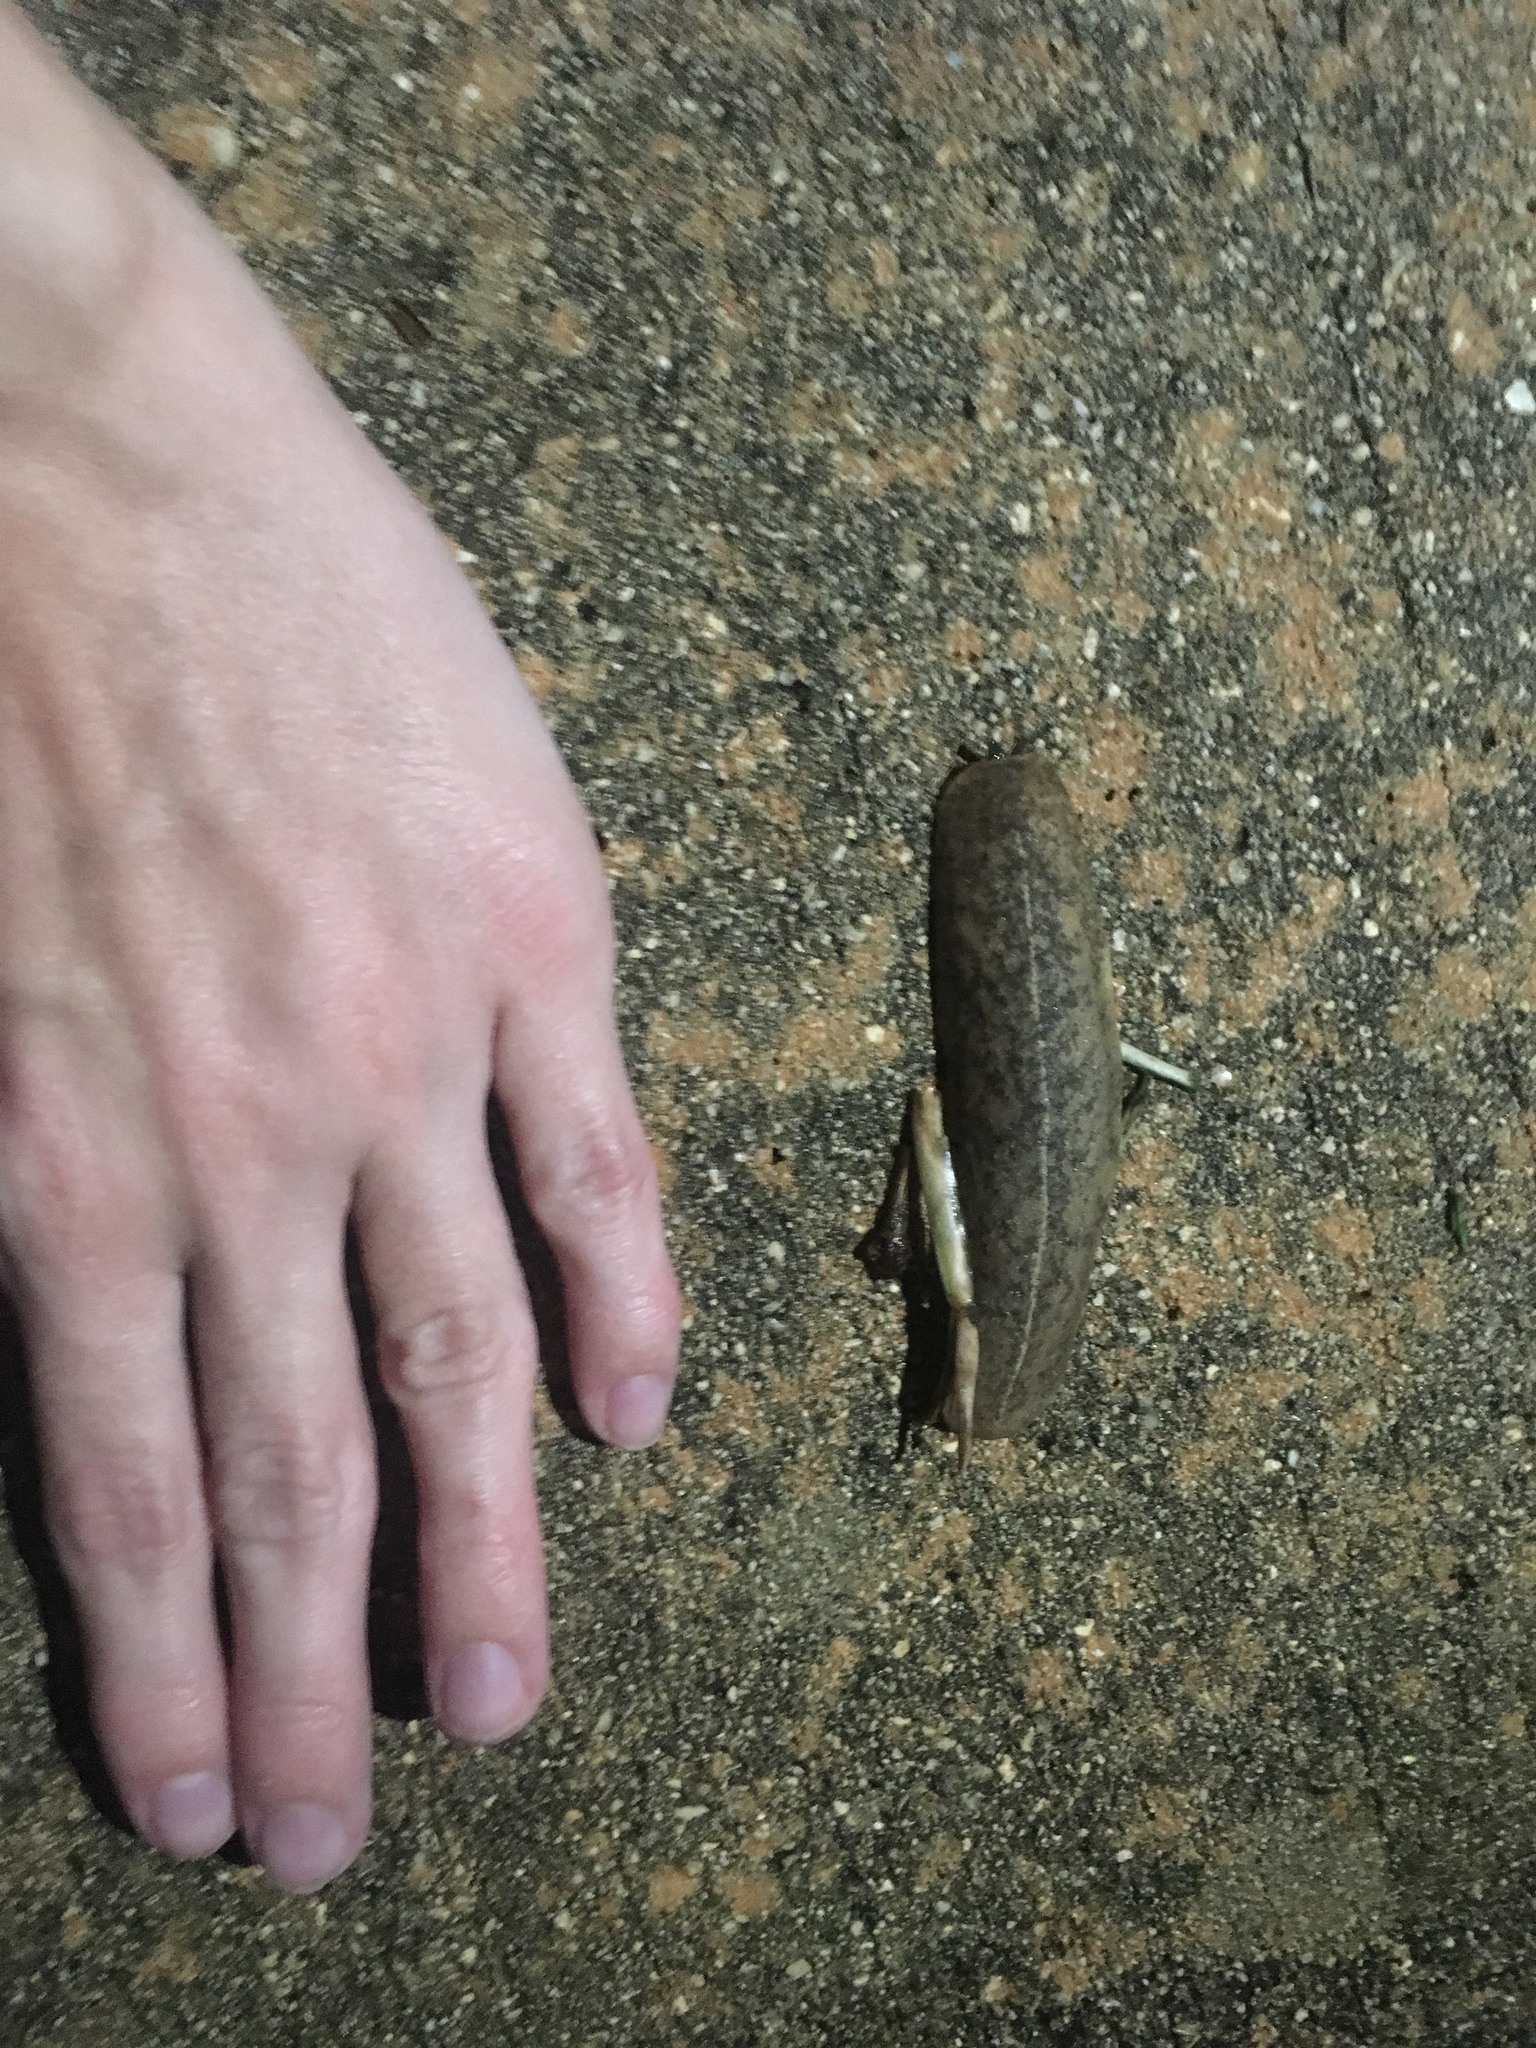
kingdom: Animalia
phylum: Mollusca
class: Gastropoda
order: Systellommatophora
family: Veronicellidae
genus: Leidyula
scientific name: Leidyula floridana
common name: Florida leatherleaf
